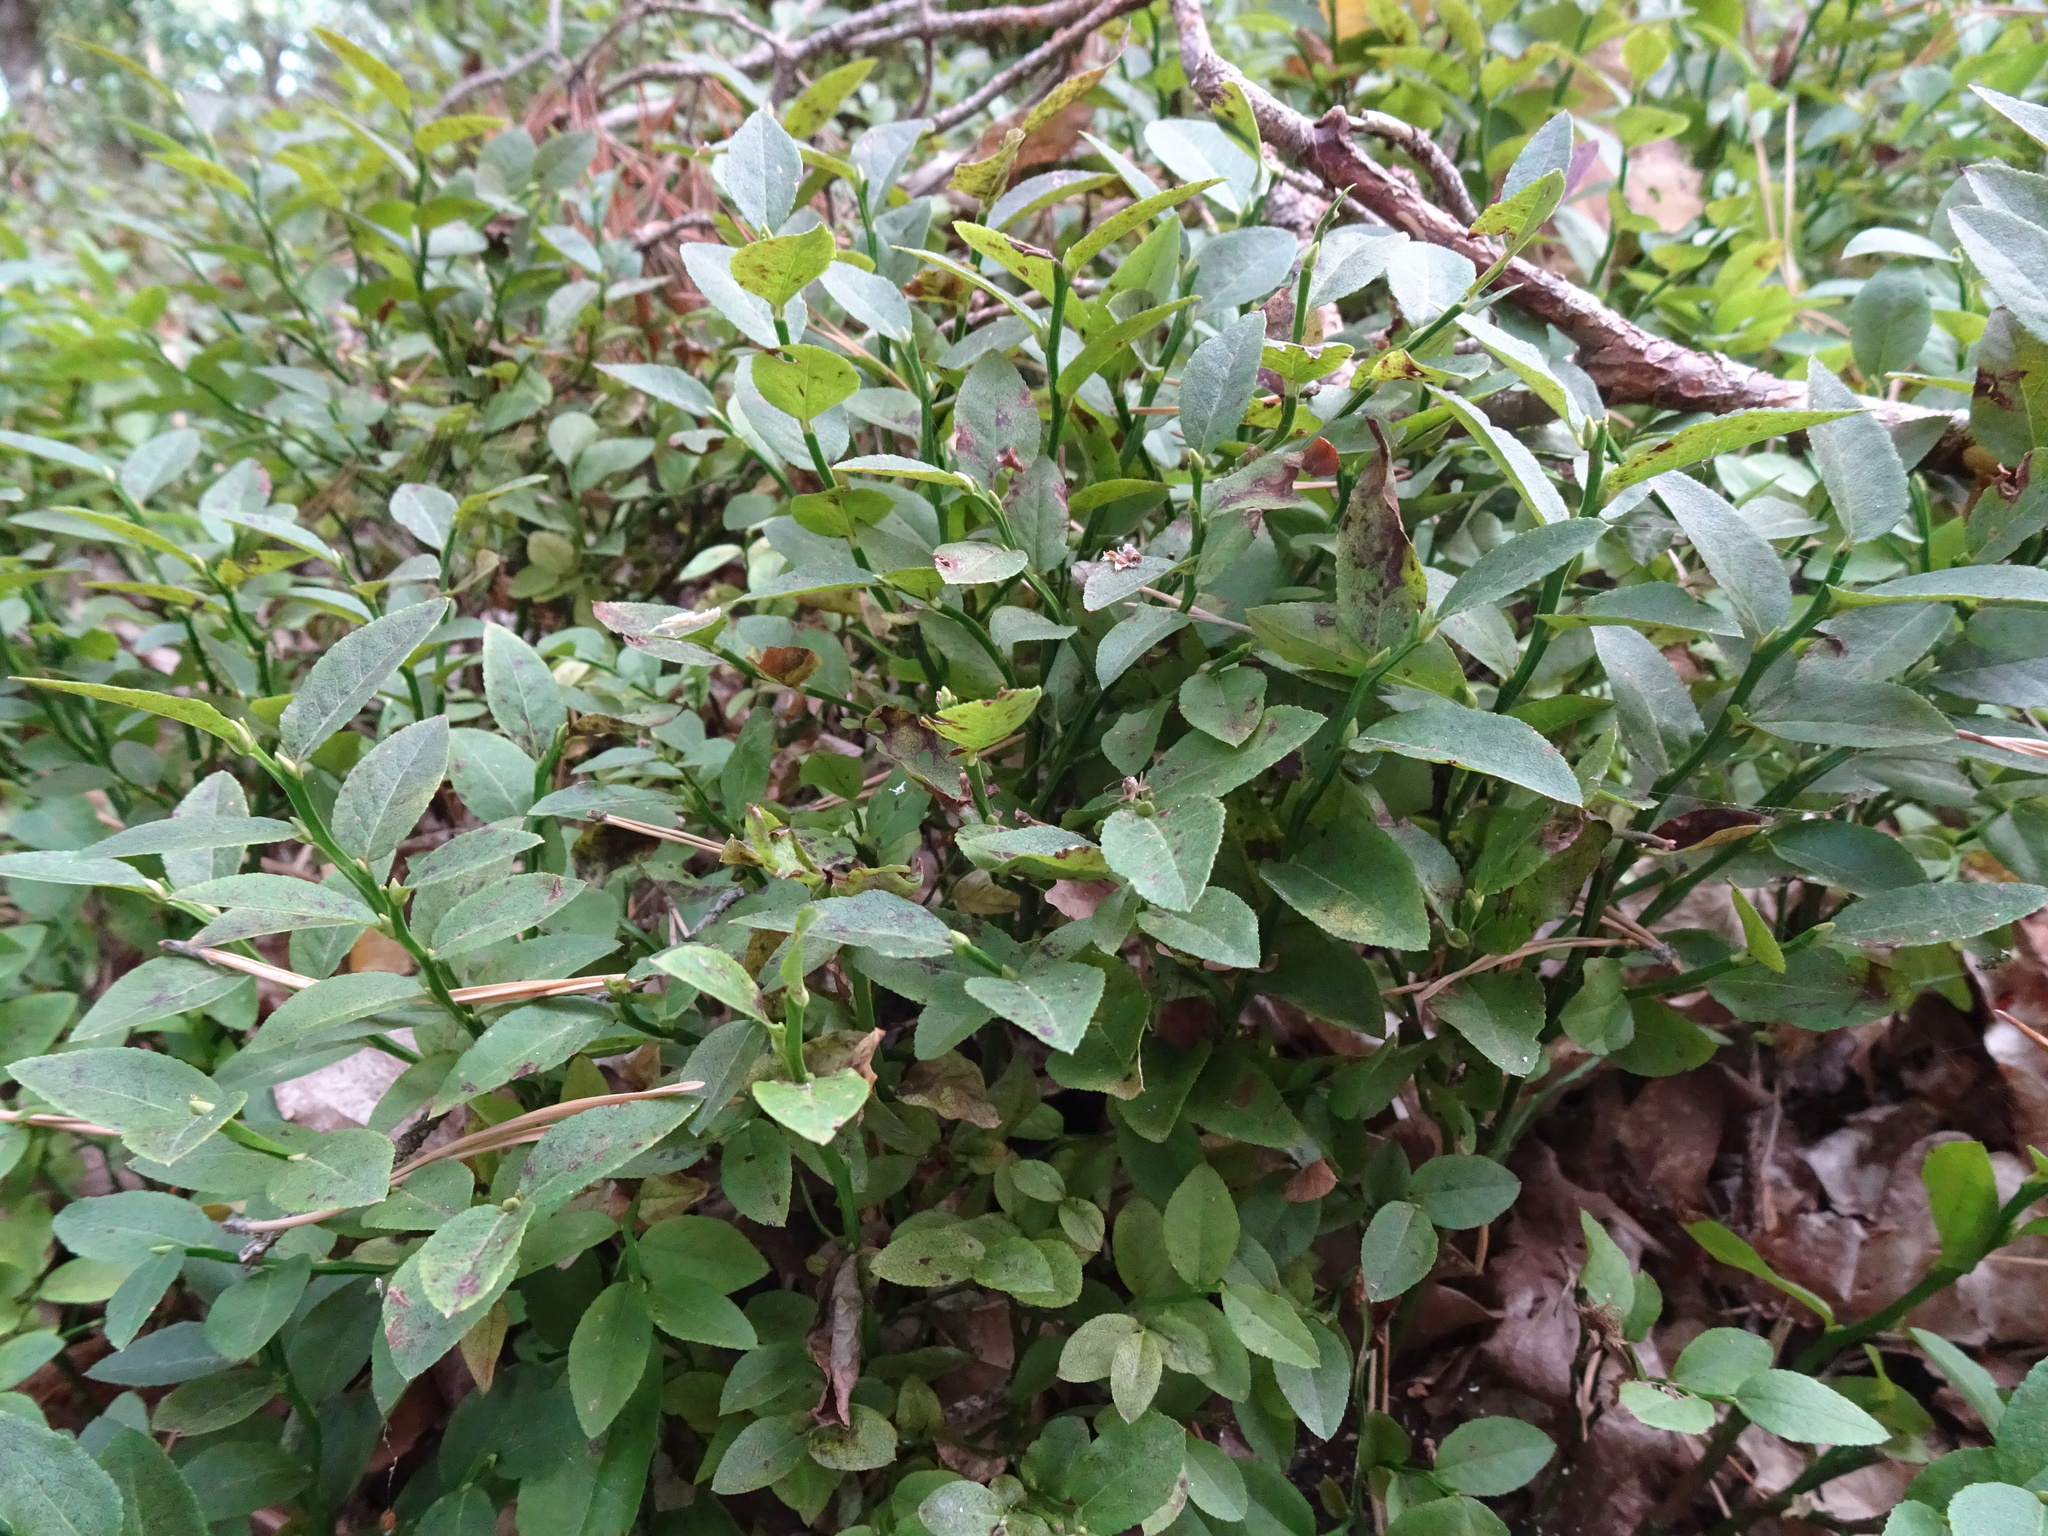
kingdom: Plantae
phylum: Tracheophyta
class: Magnoliopsida
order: Ericales
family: Ericaceae
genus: Vaccinium
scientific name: Vaccinium myrtillus
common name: Bilberry
